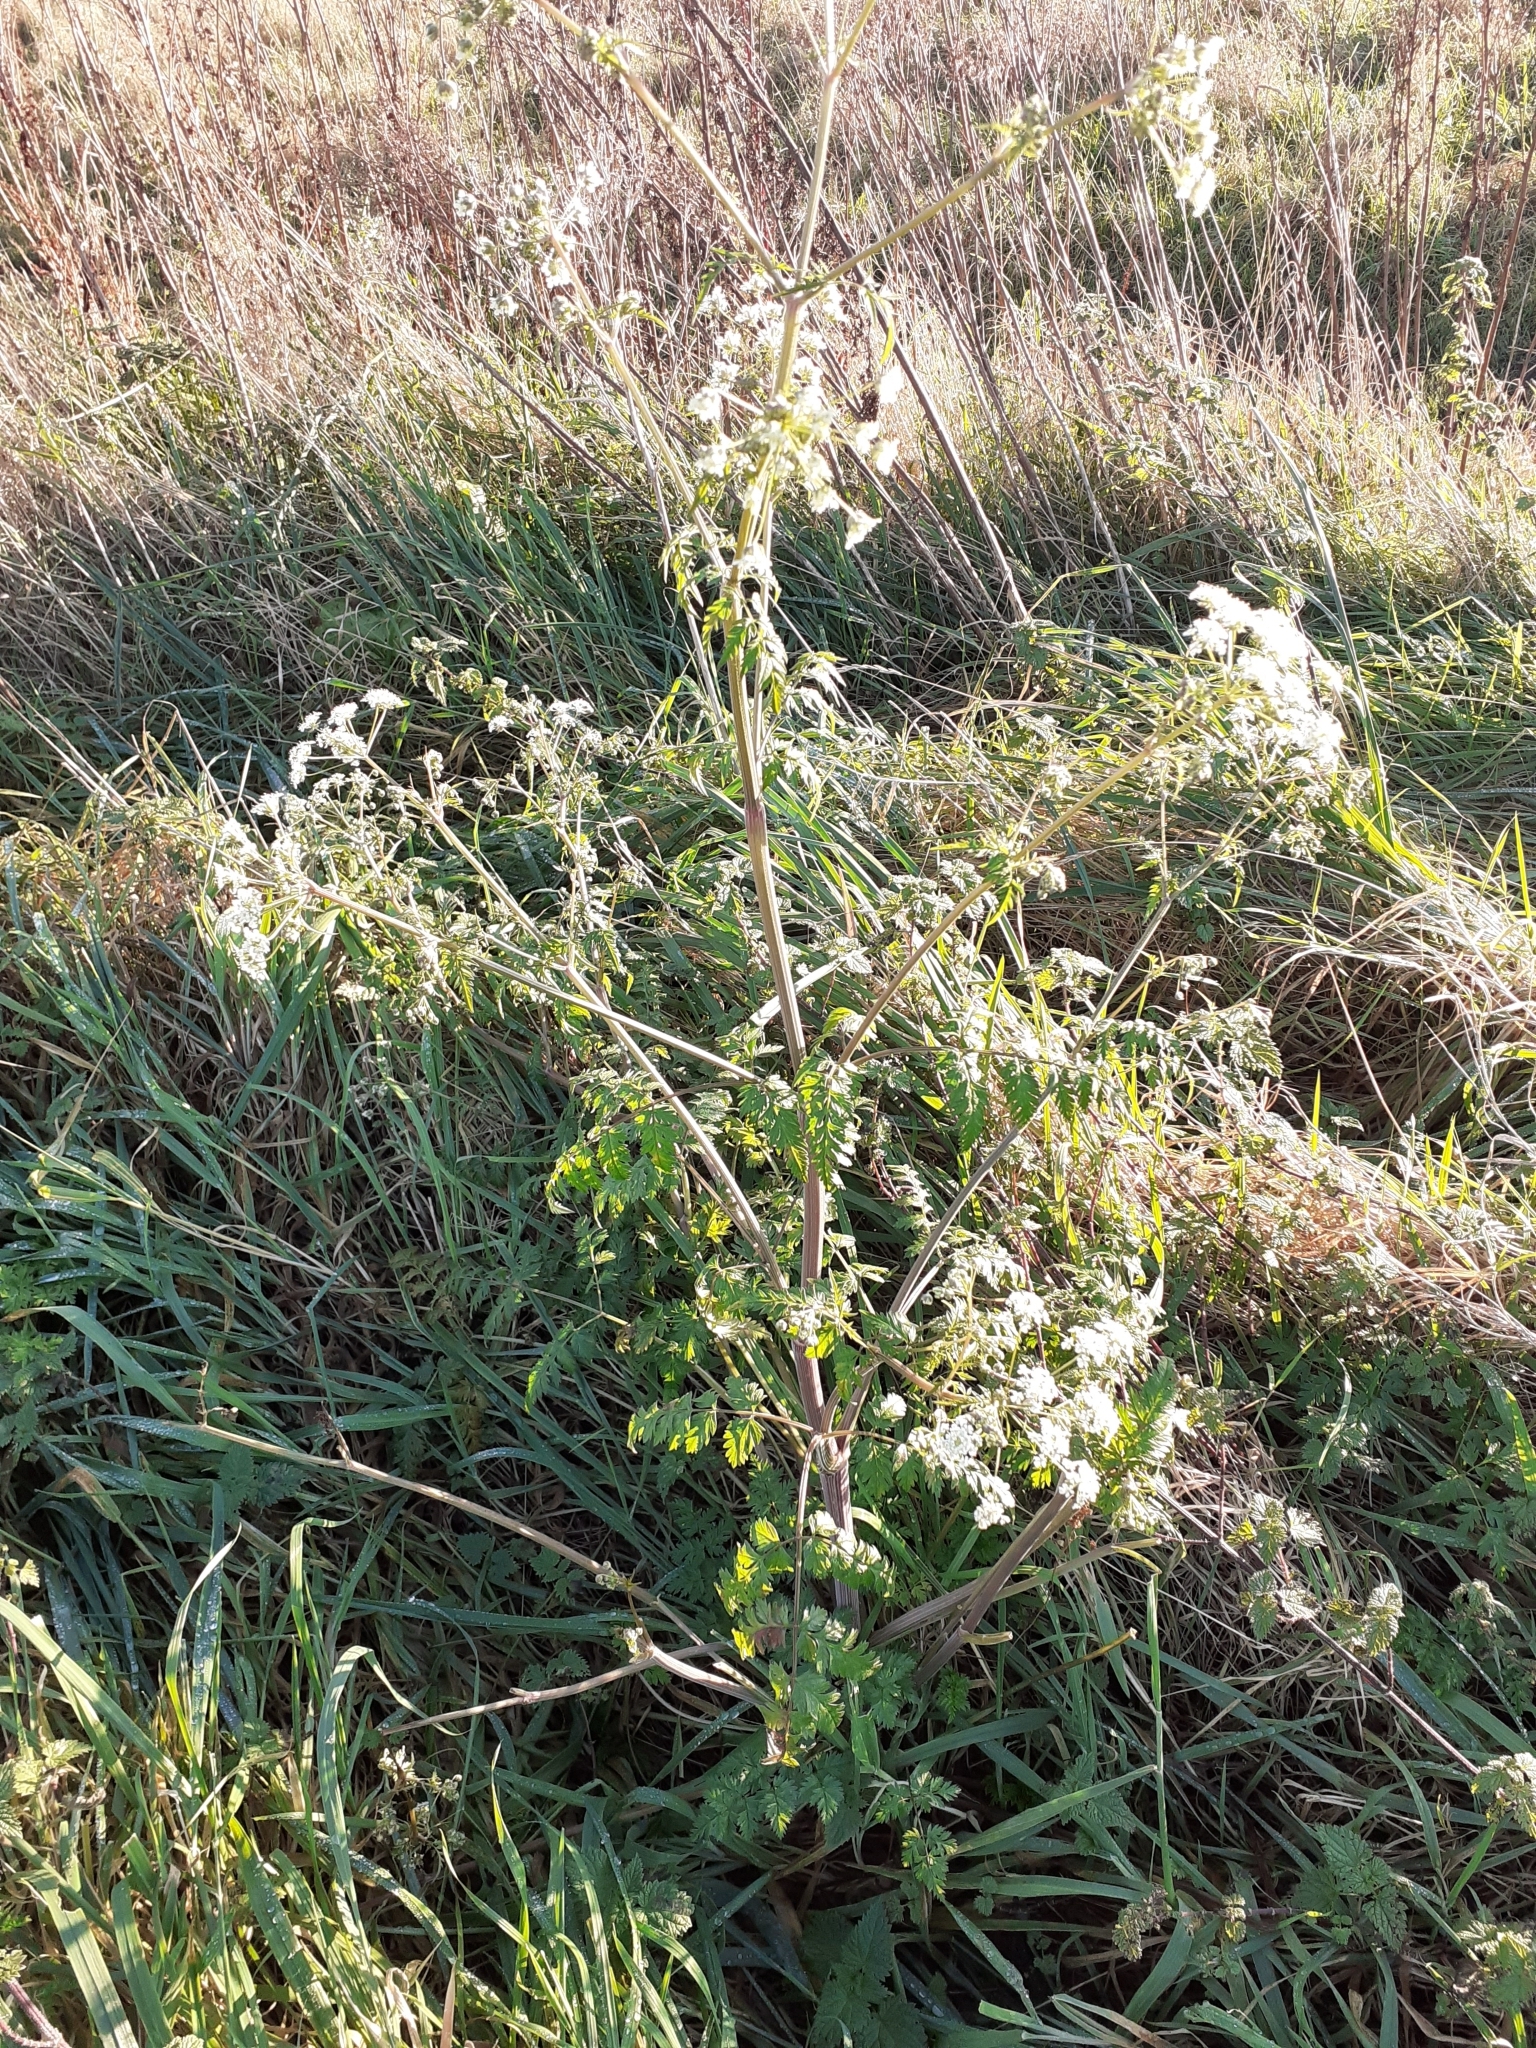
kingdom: Plantae
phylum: Tracheophyta
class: Magnoliopsida
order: Apiales
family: Apiaceae
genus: Anthriscus
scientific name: Anthriscus sylvestris
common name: Cow parsley
